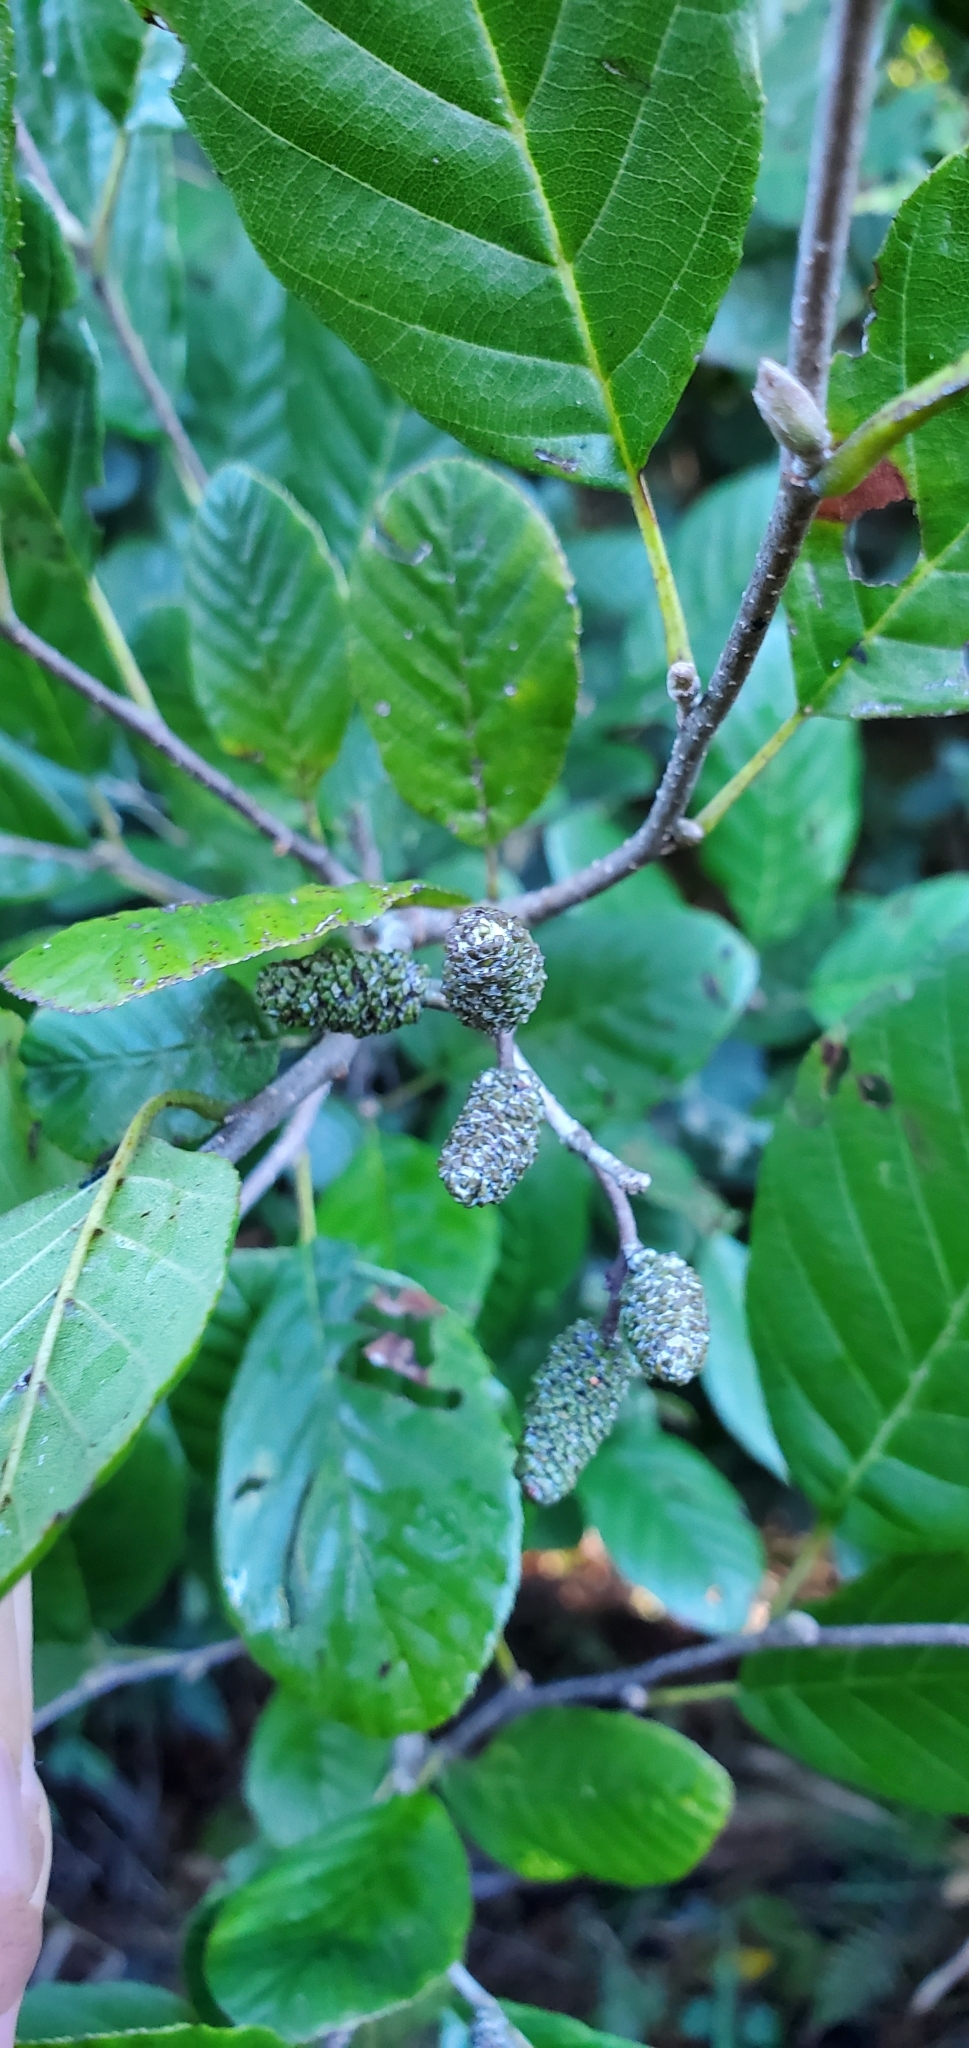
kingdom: Plantae
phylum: Tracheophyta
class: Magnoliopsida
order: Fagales
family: Betulaceae
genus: Alnus
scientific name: Alnus serrulata
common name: Hazel alder
